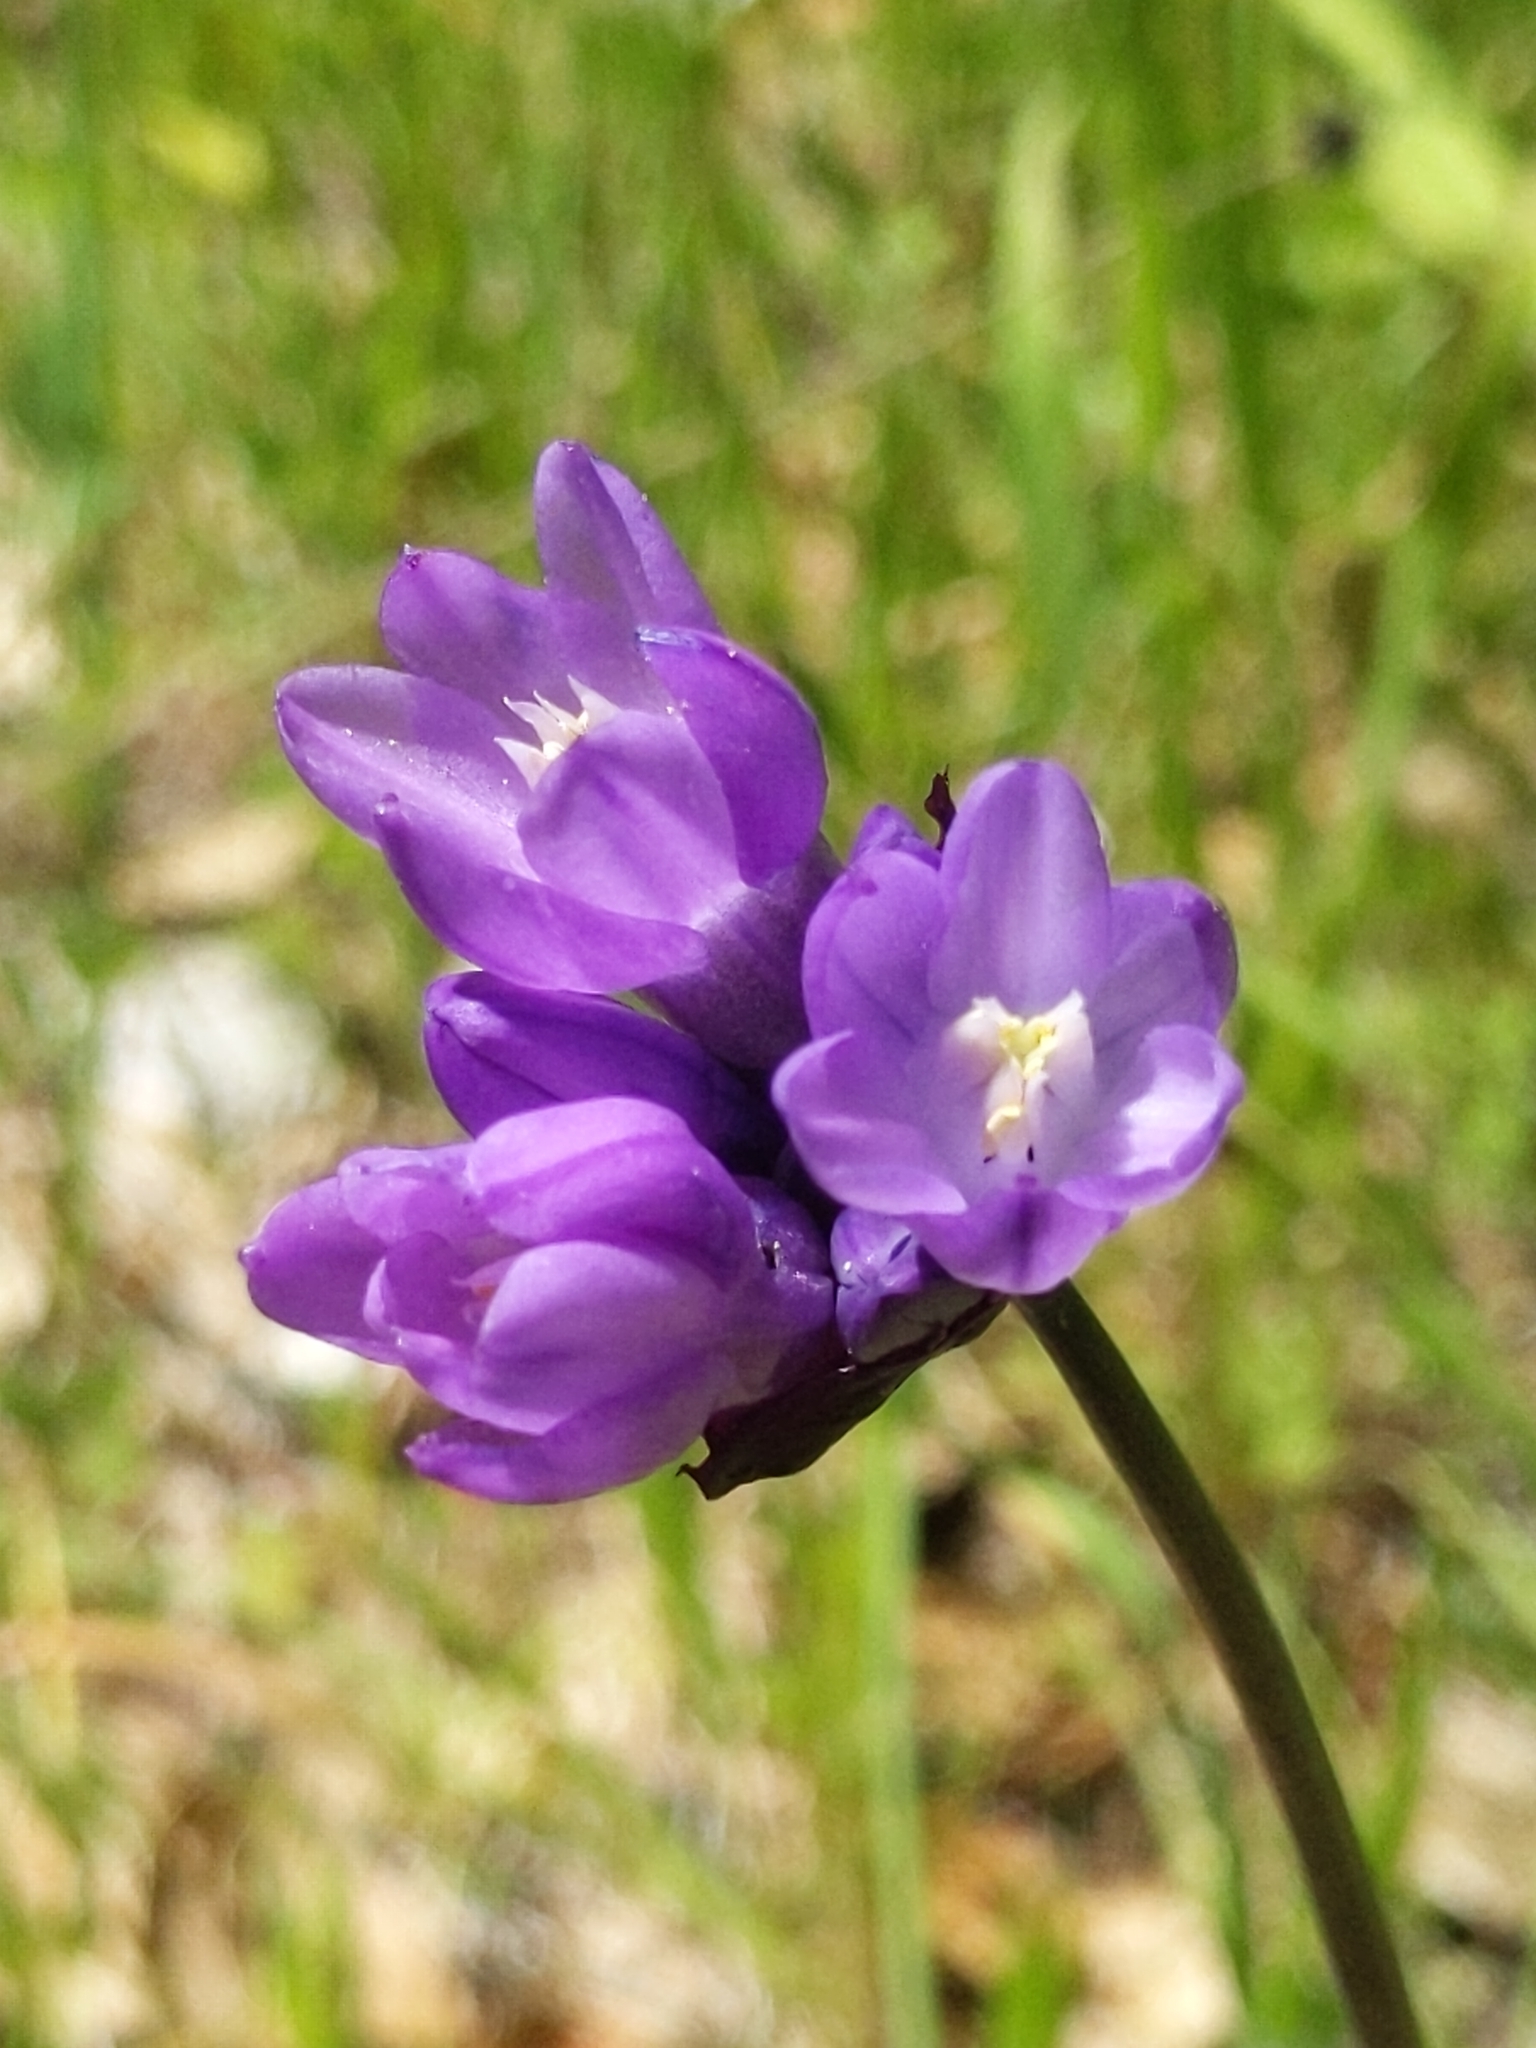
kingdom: Plantae
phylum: Tracheophyta
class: Liliopsida
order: Asparagales
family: Asparagaceae
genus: Dipterostemon
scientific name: Dipterostemon capitatus
